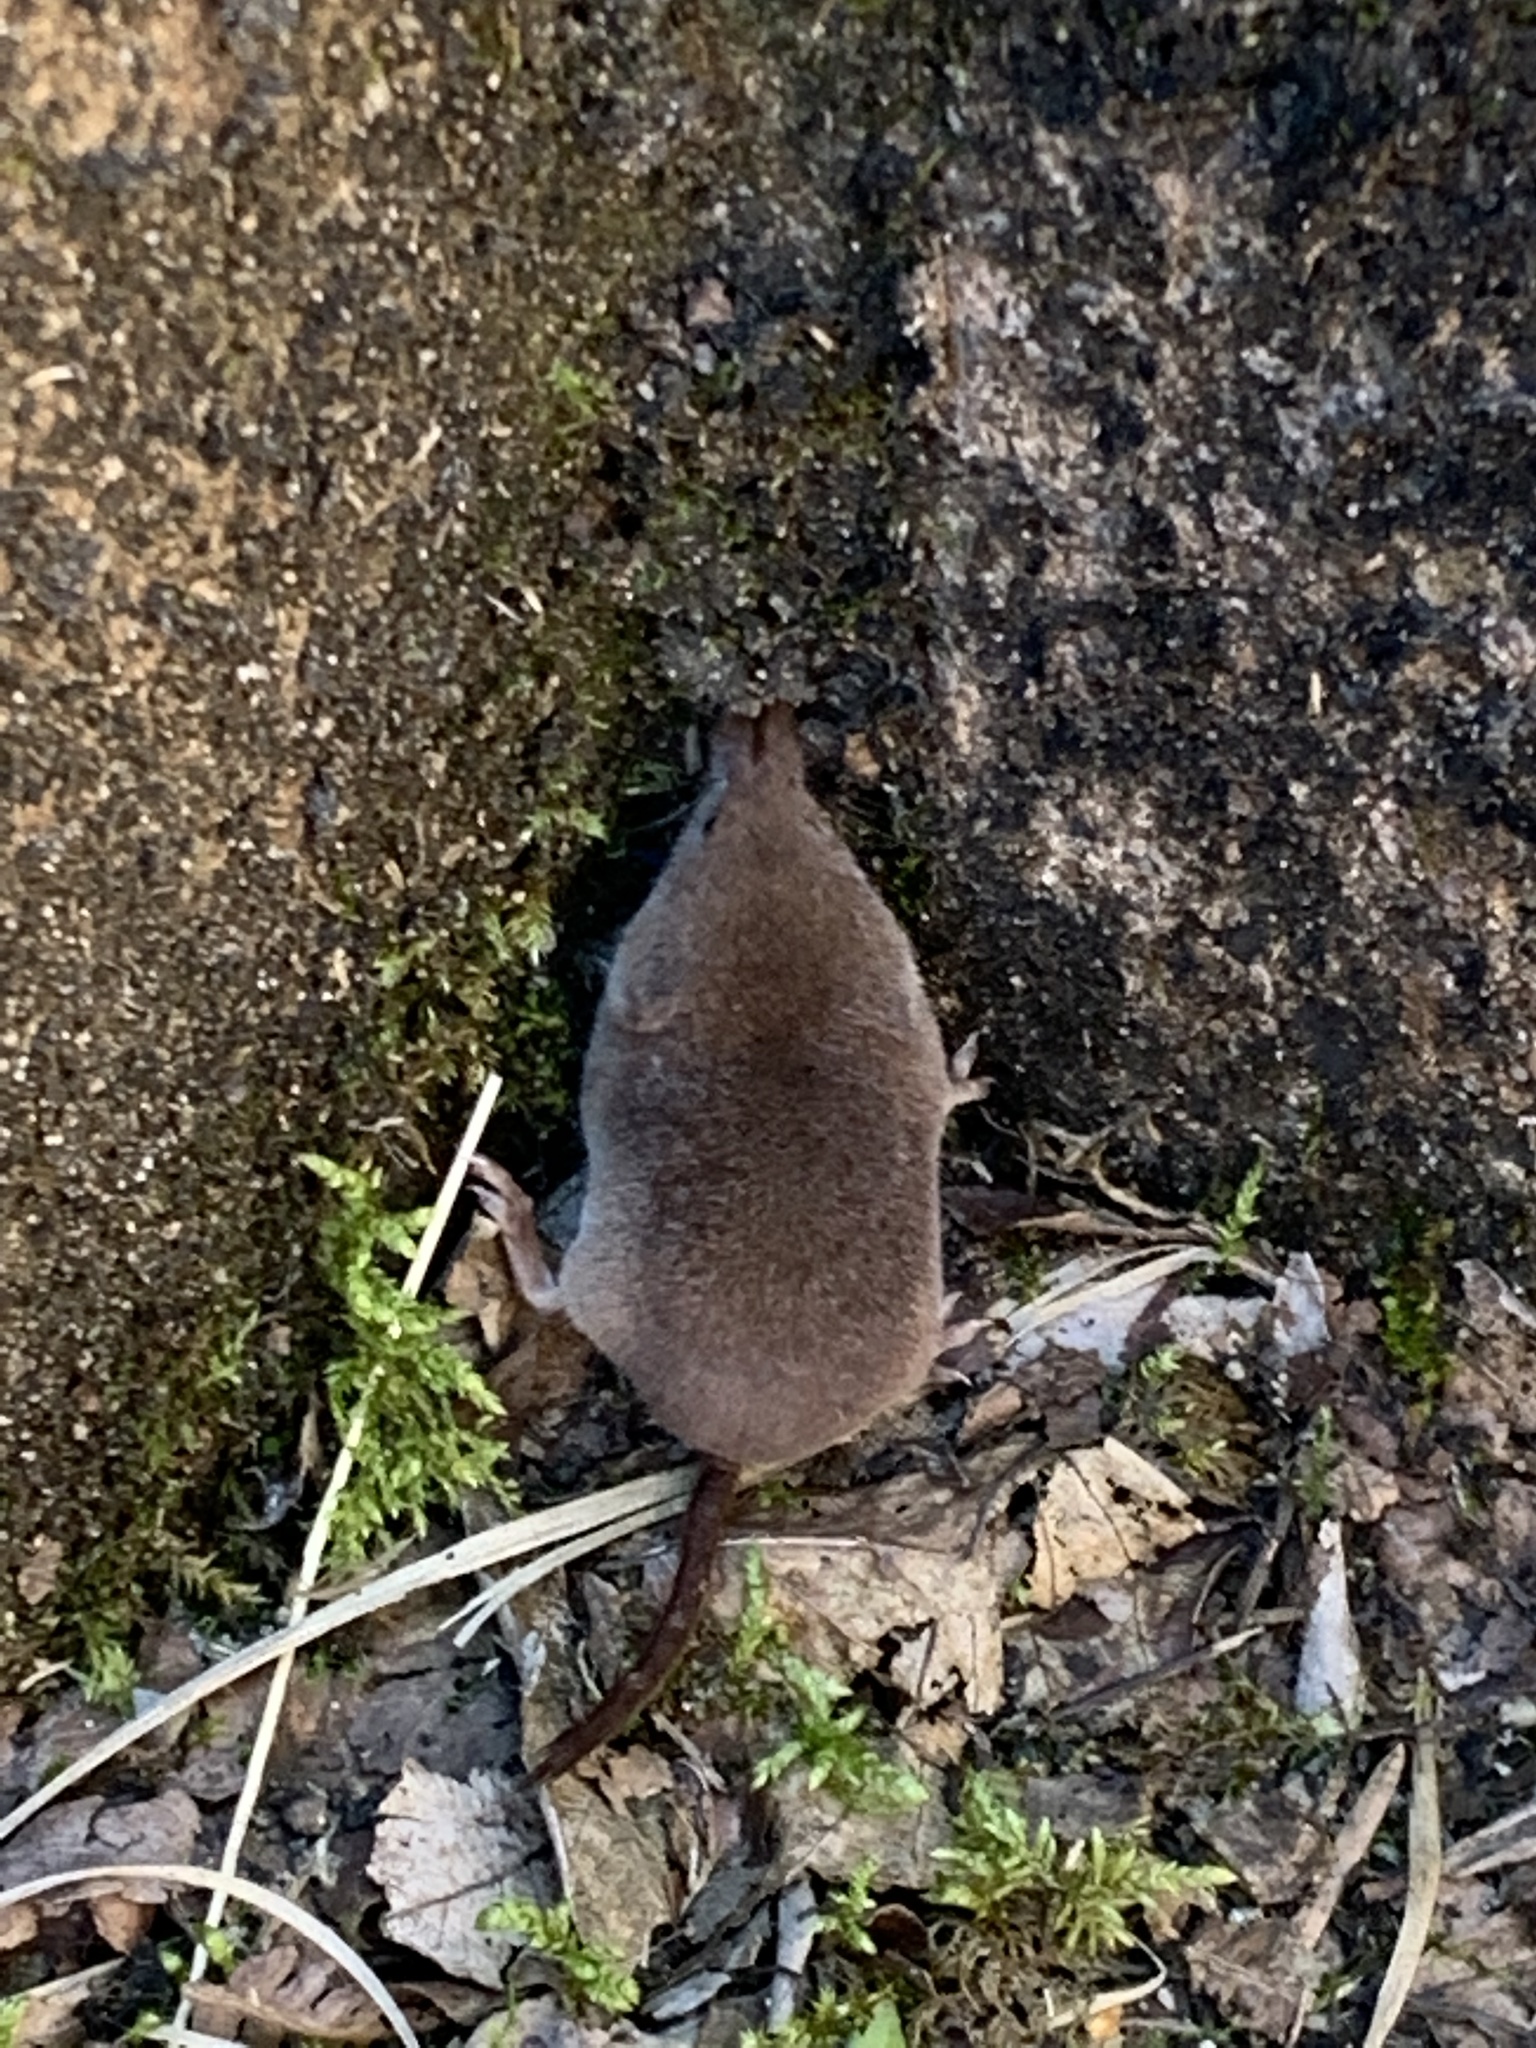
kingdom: Animalia
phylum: Chordata
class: Mammalia
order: Soricomorpha
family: Soricidae
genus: Sorex
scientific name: Sorex araneus
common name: Common shrew
